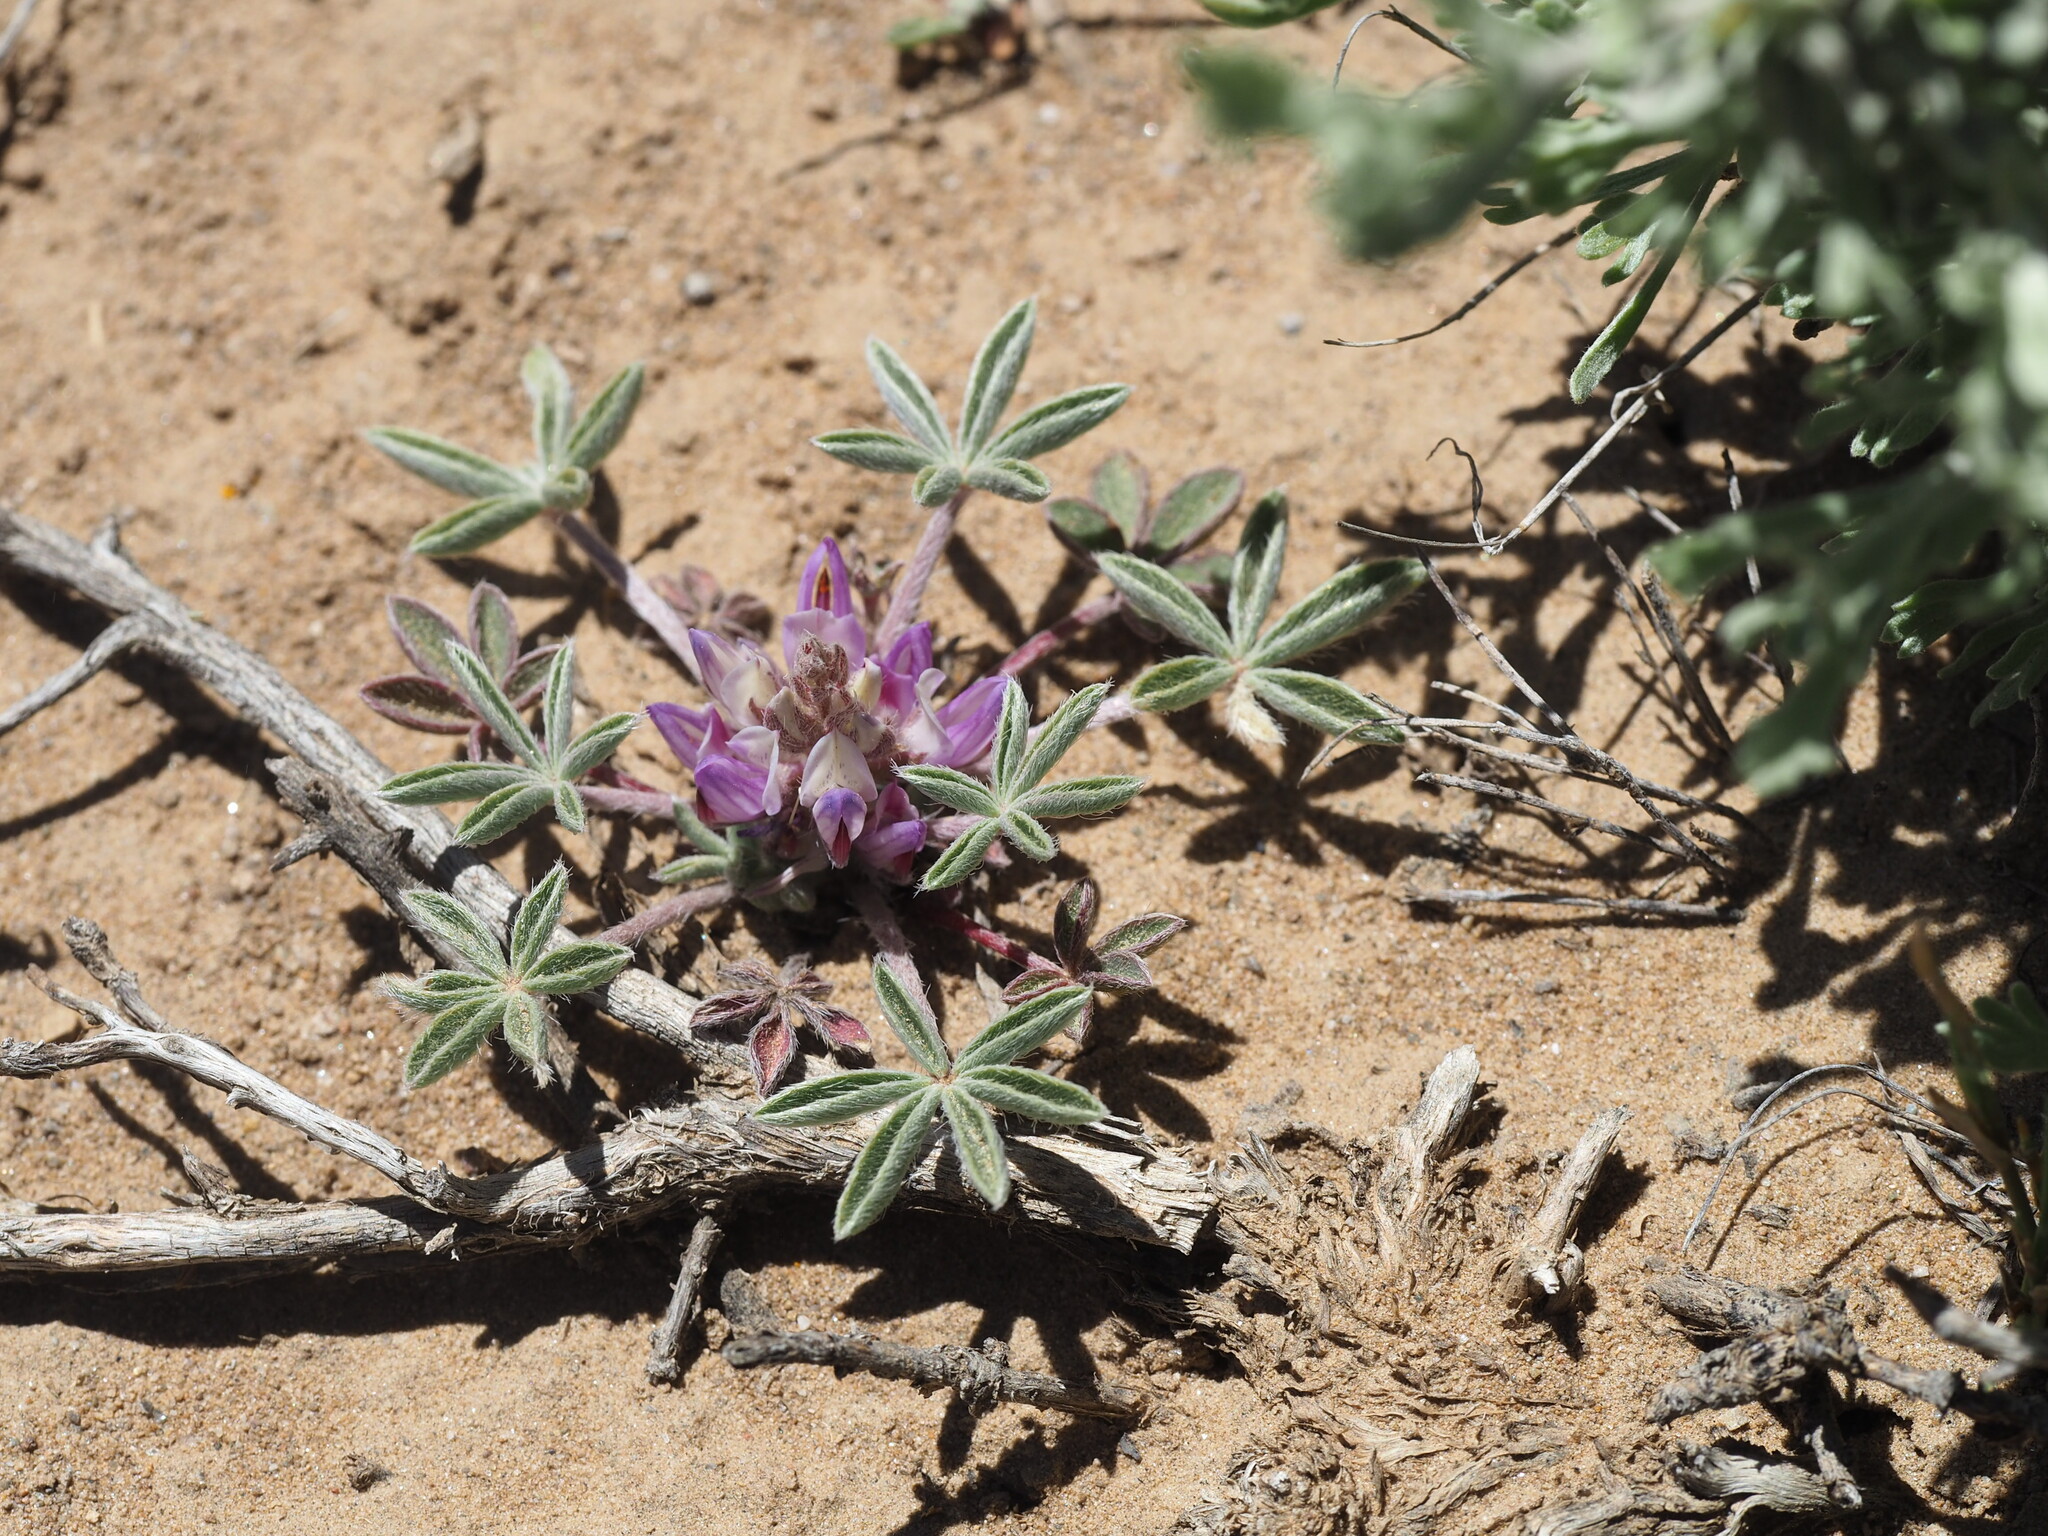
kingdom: Plantae
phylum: Tracheophyta
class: Magnoliopsida
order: Fabales
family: Fabaceae
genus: Lupinus
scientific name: Lupinus caespitosus
